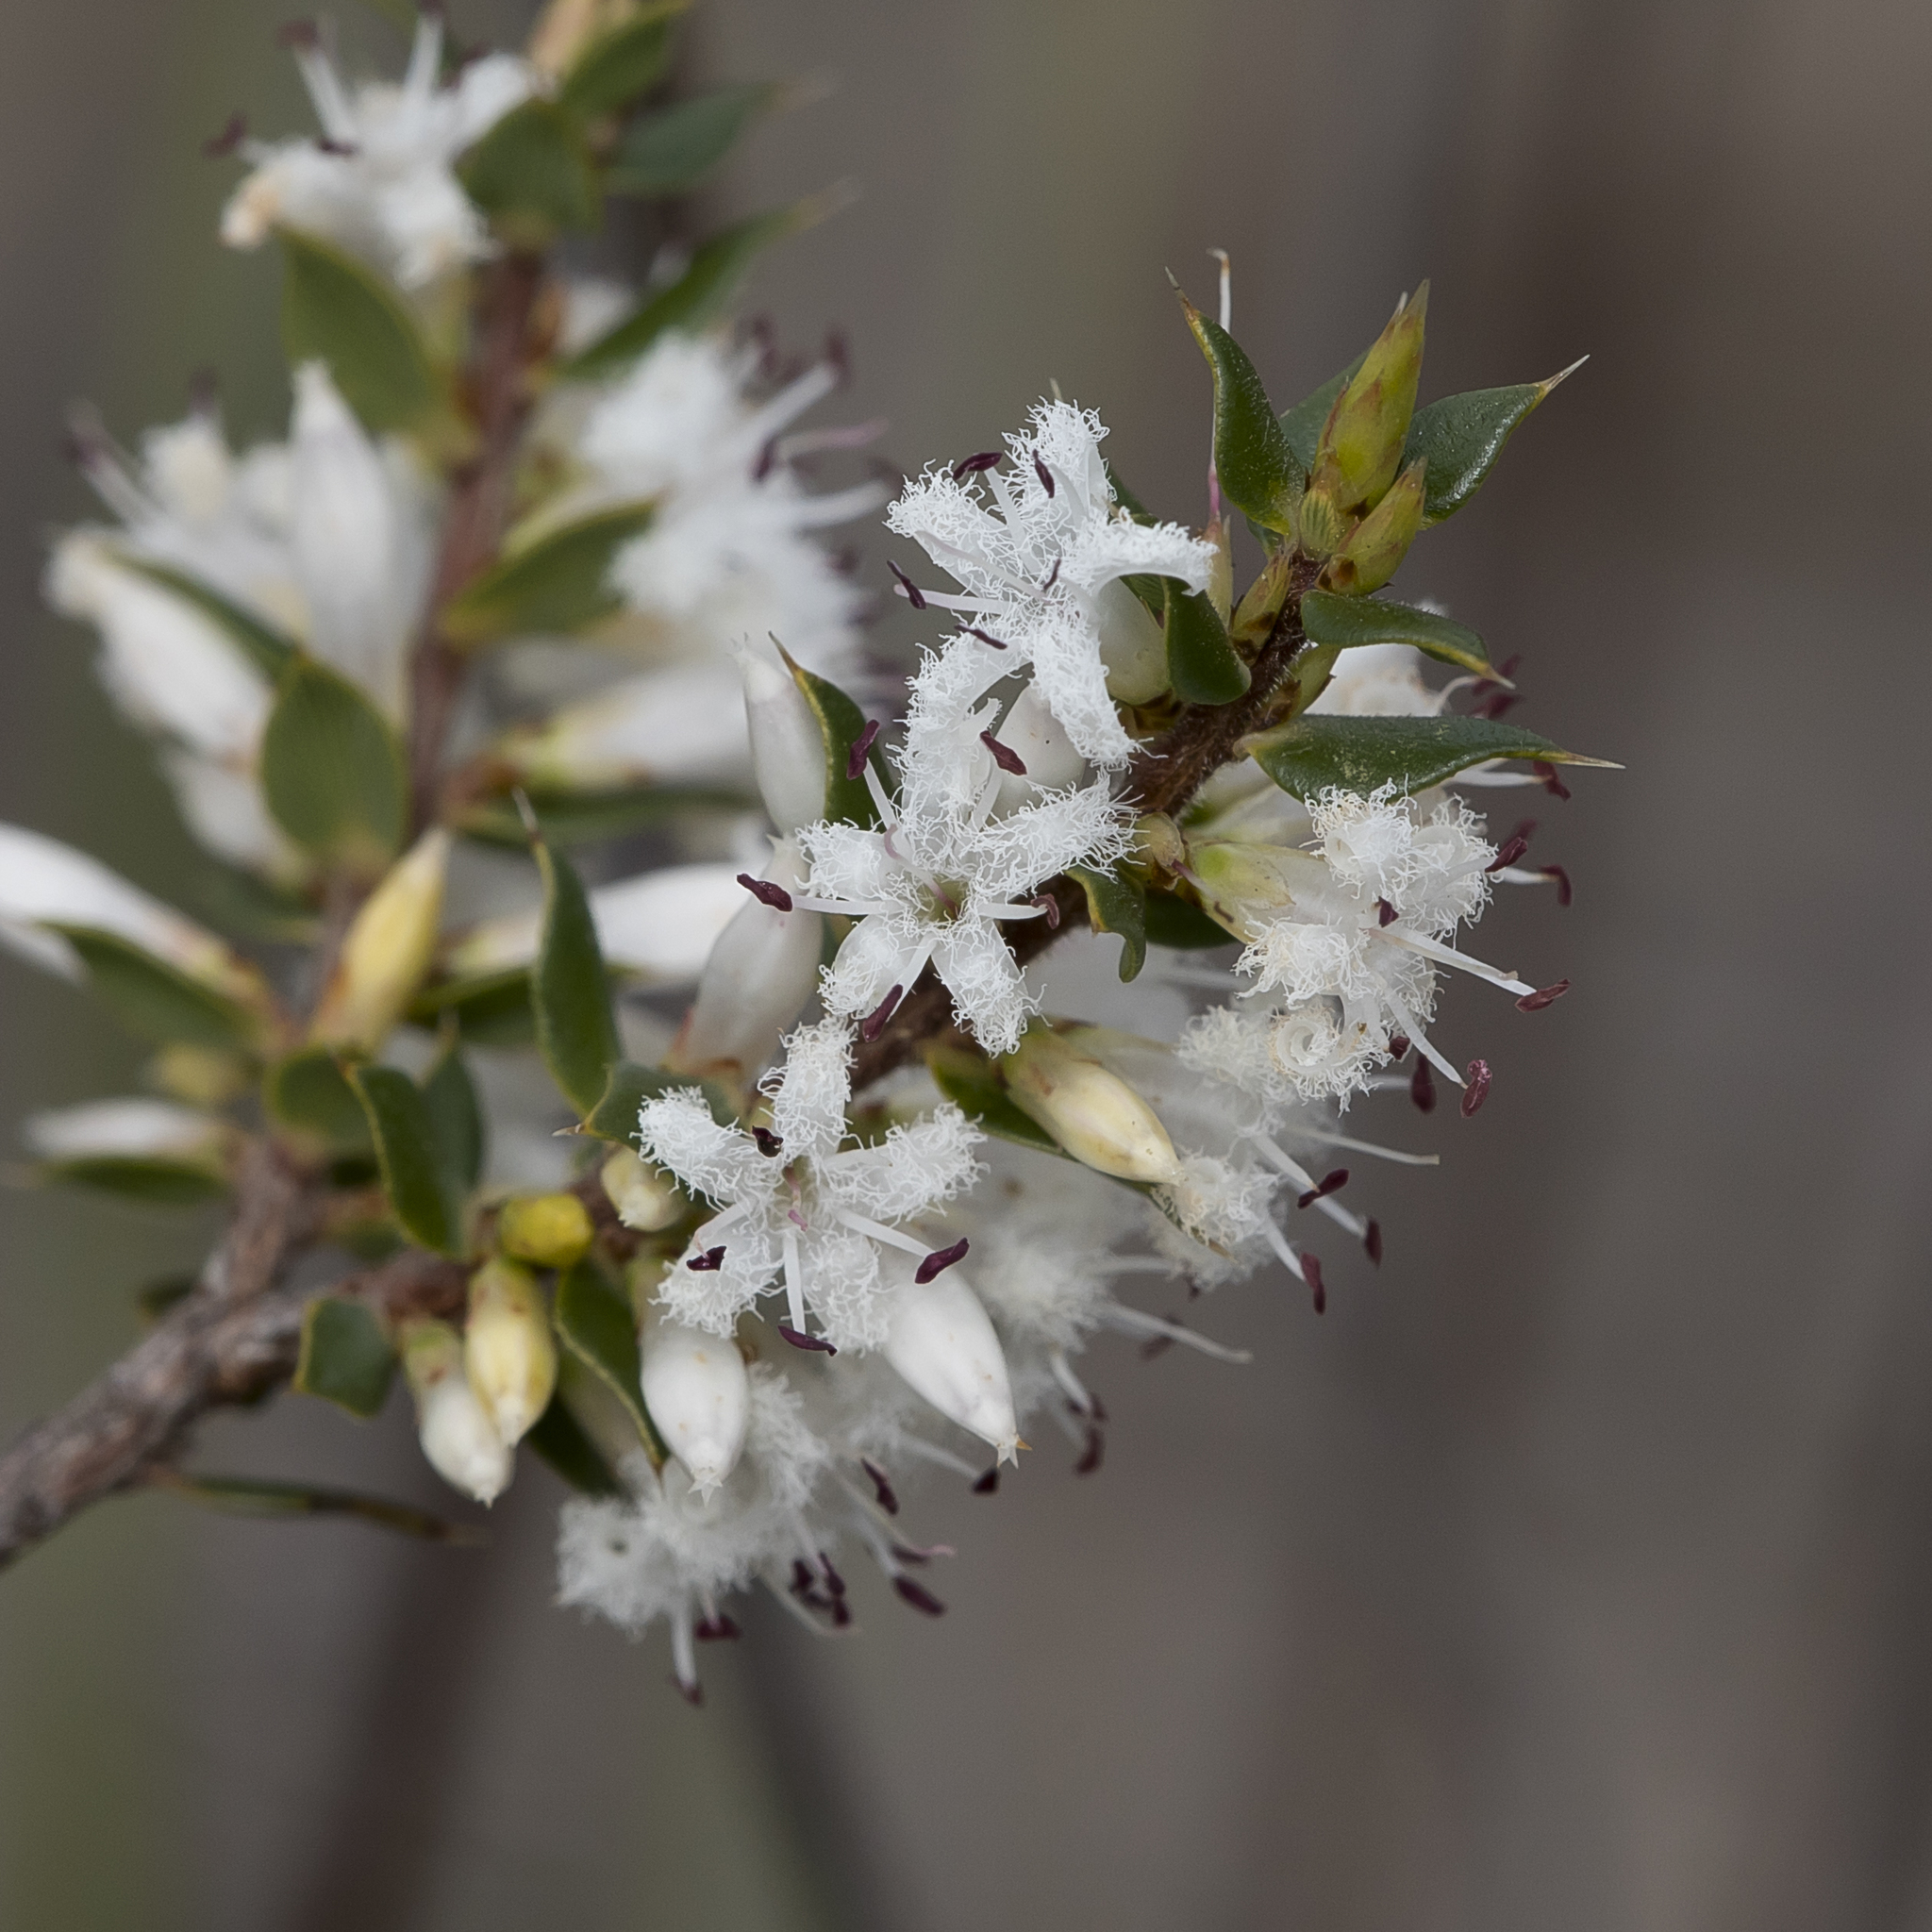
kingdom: Plantae
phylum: Tracheophyta
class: Magnoliopsida
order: Ericales
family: Ericaceae
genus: Styphelia
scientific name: Styphelia exarrhena
